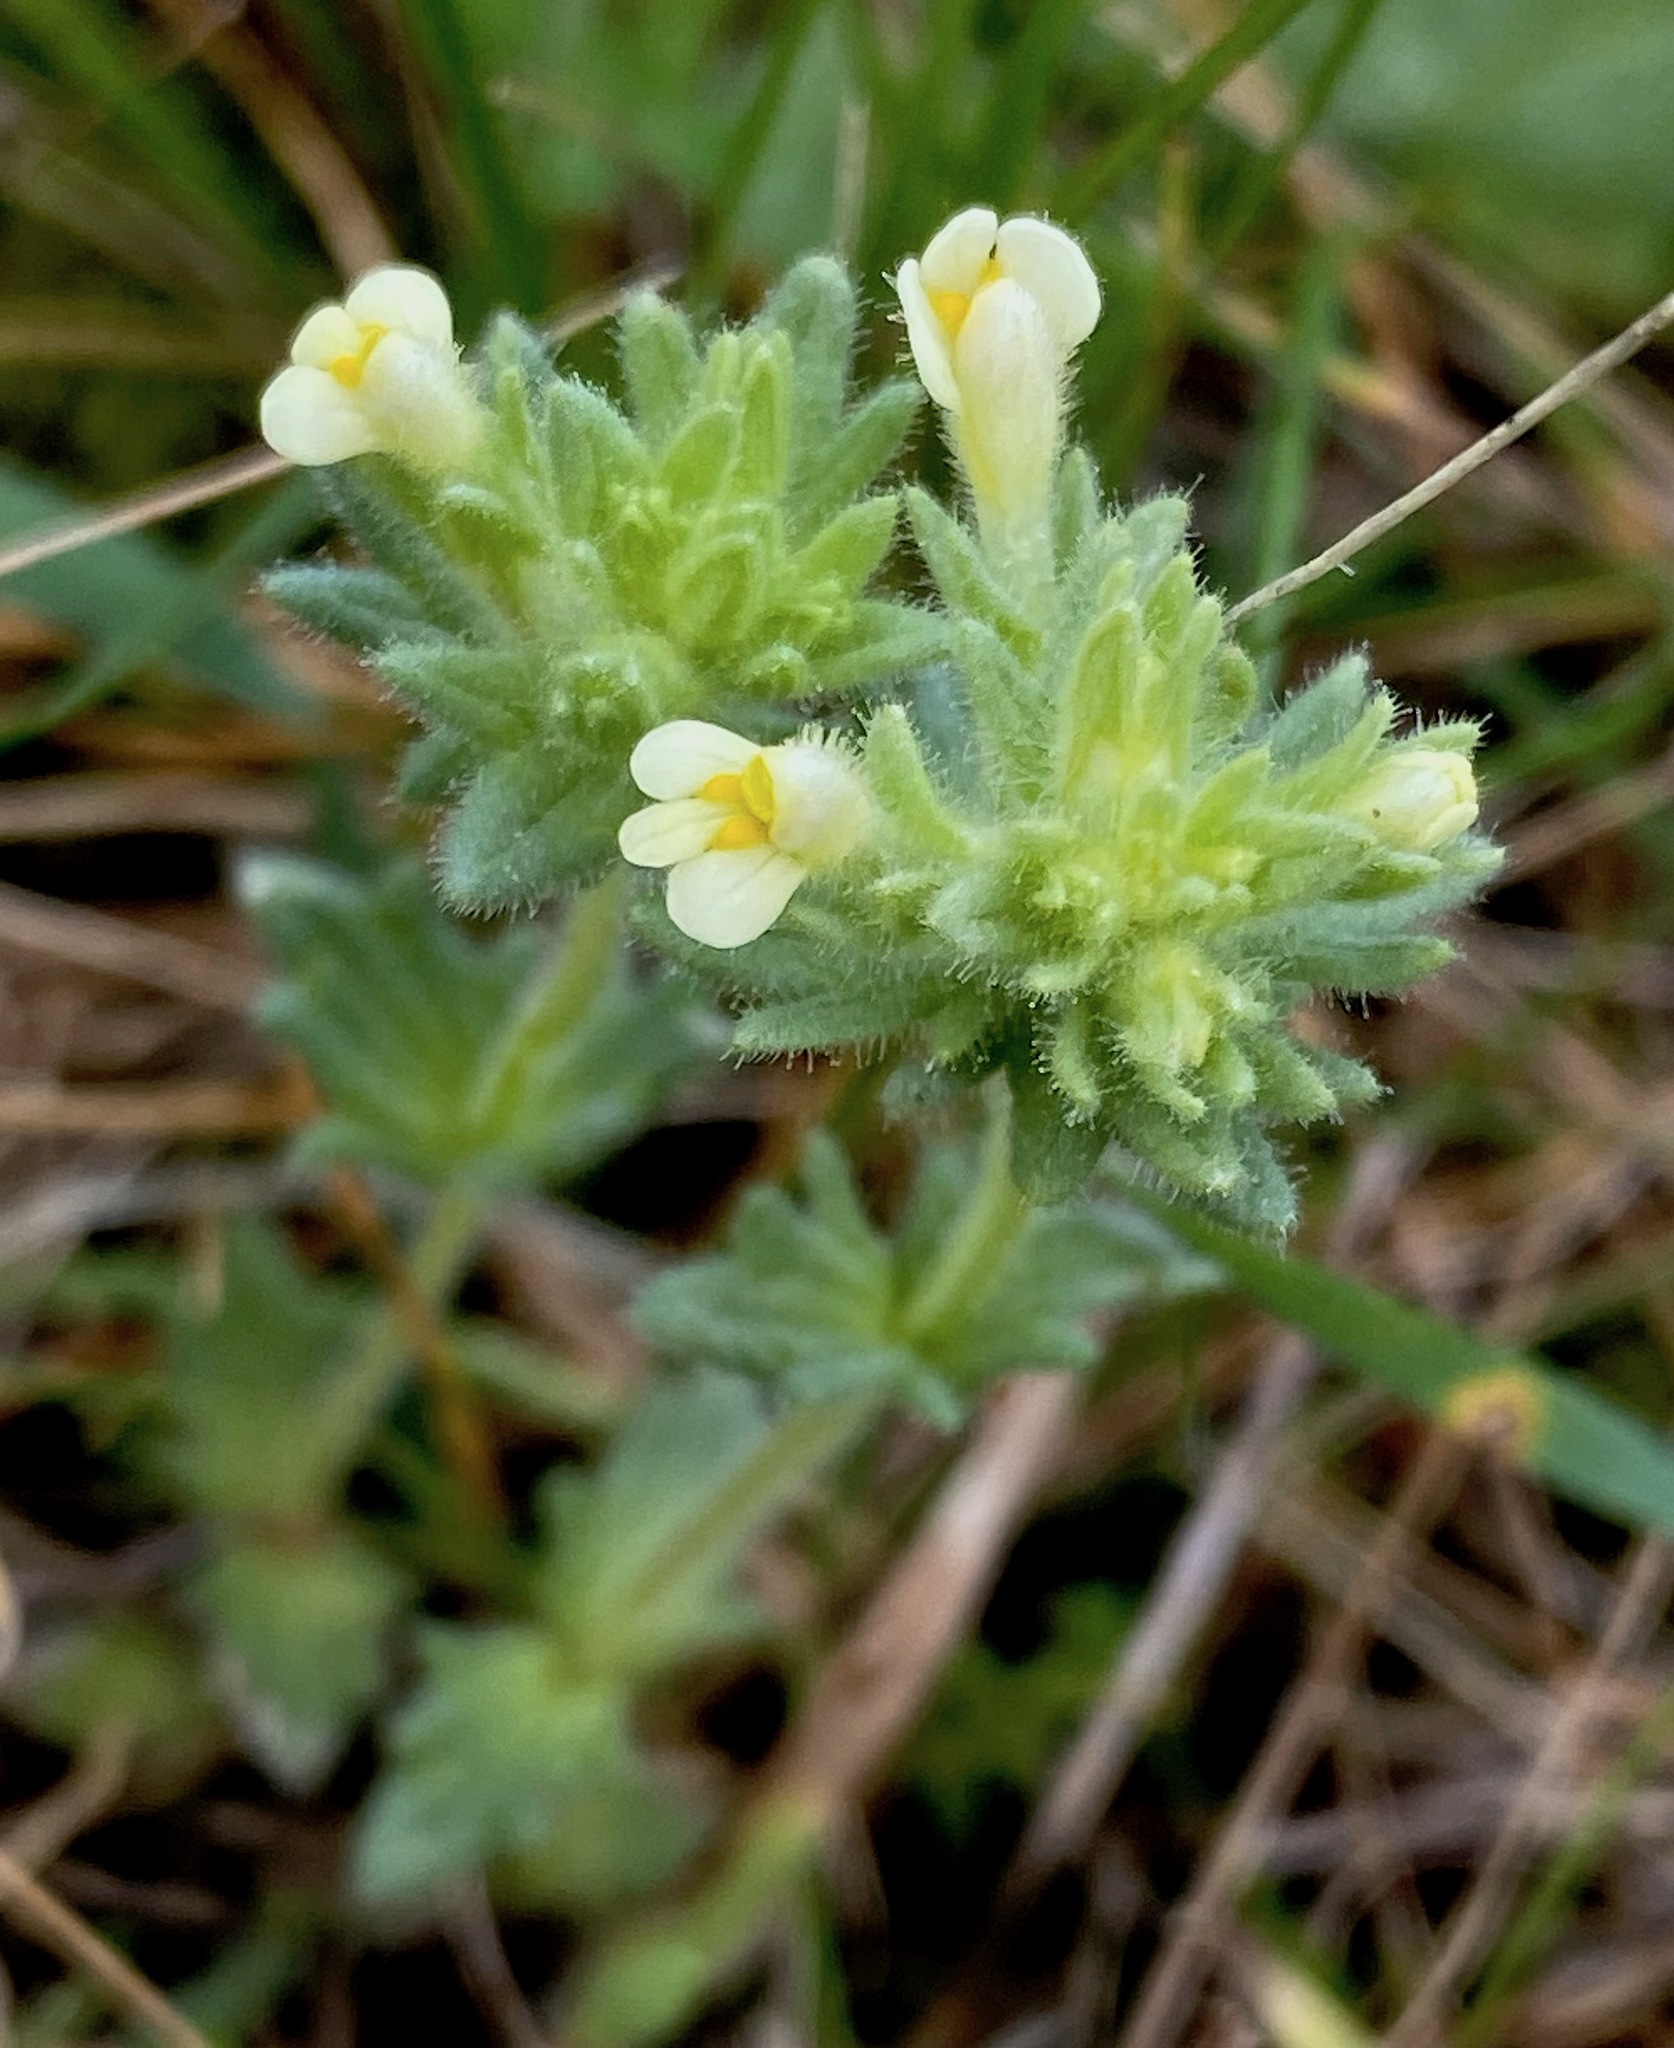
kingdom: Plantae
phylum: Tracheophyta
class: Magnoliopsida
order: Lamiales
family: Orobanchaceae
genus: Parentucellia
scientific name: Parentucellia flaviflora
